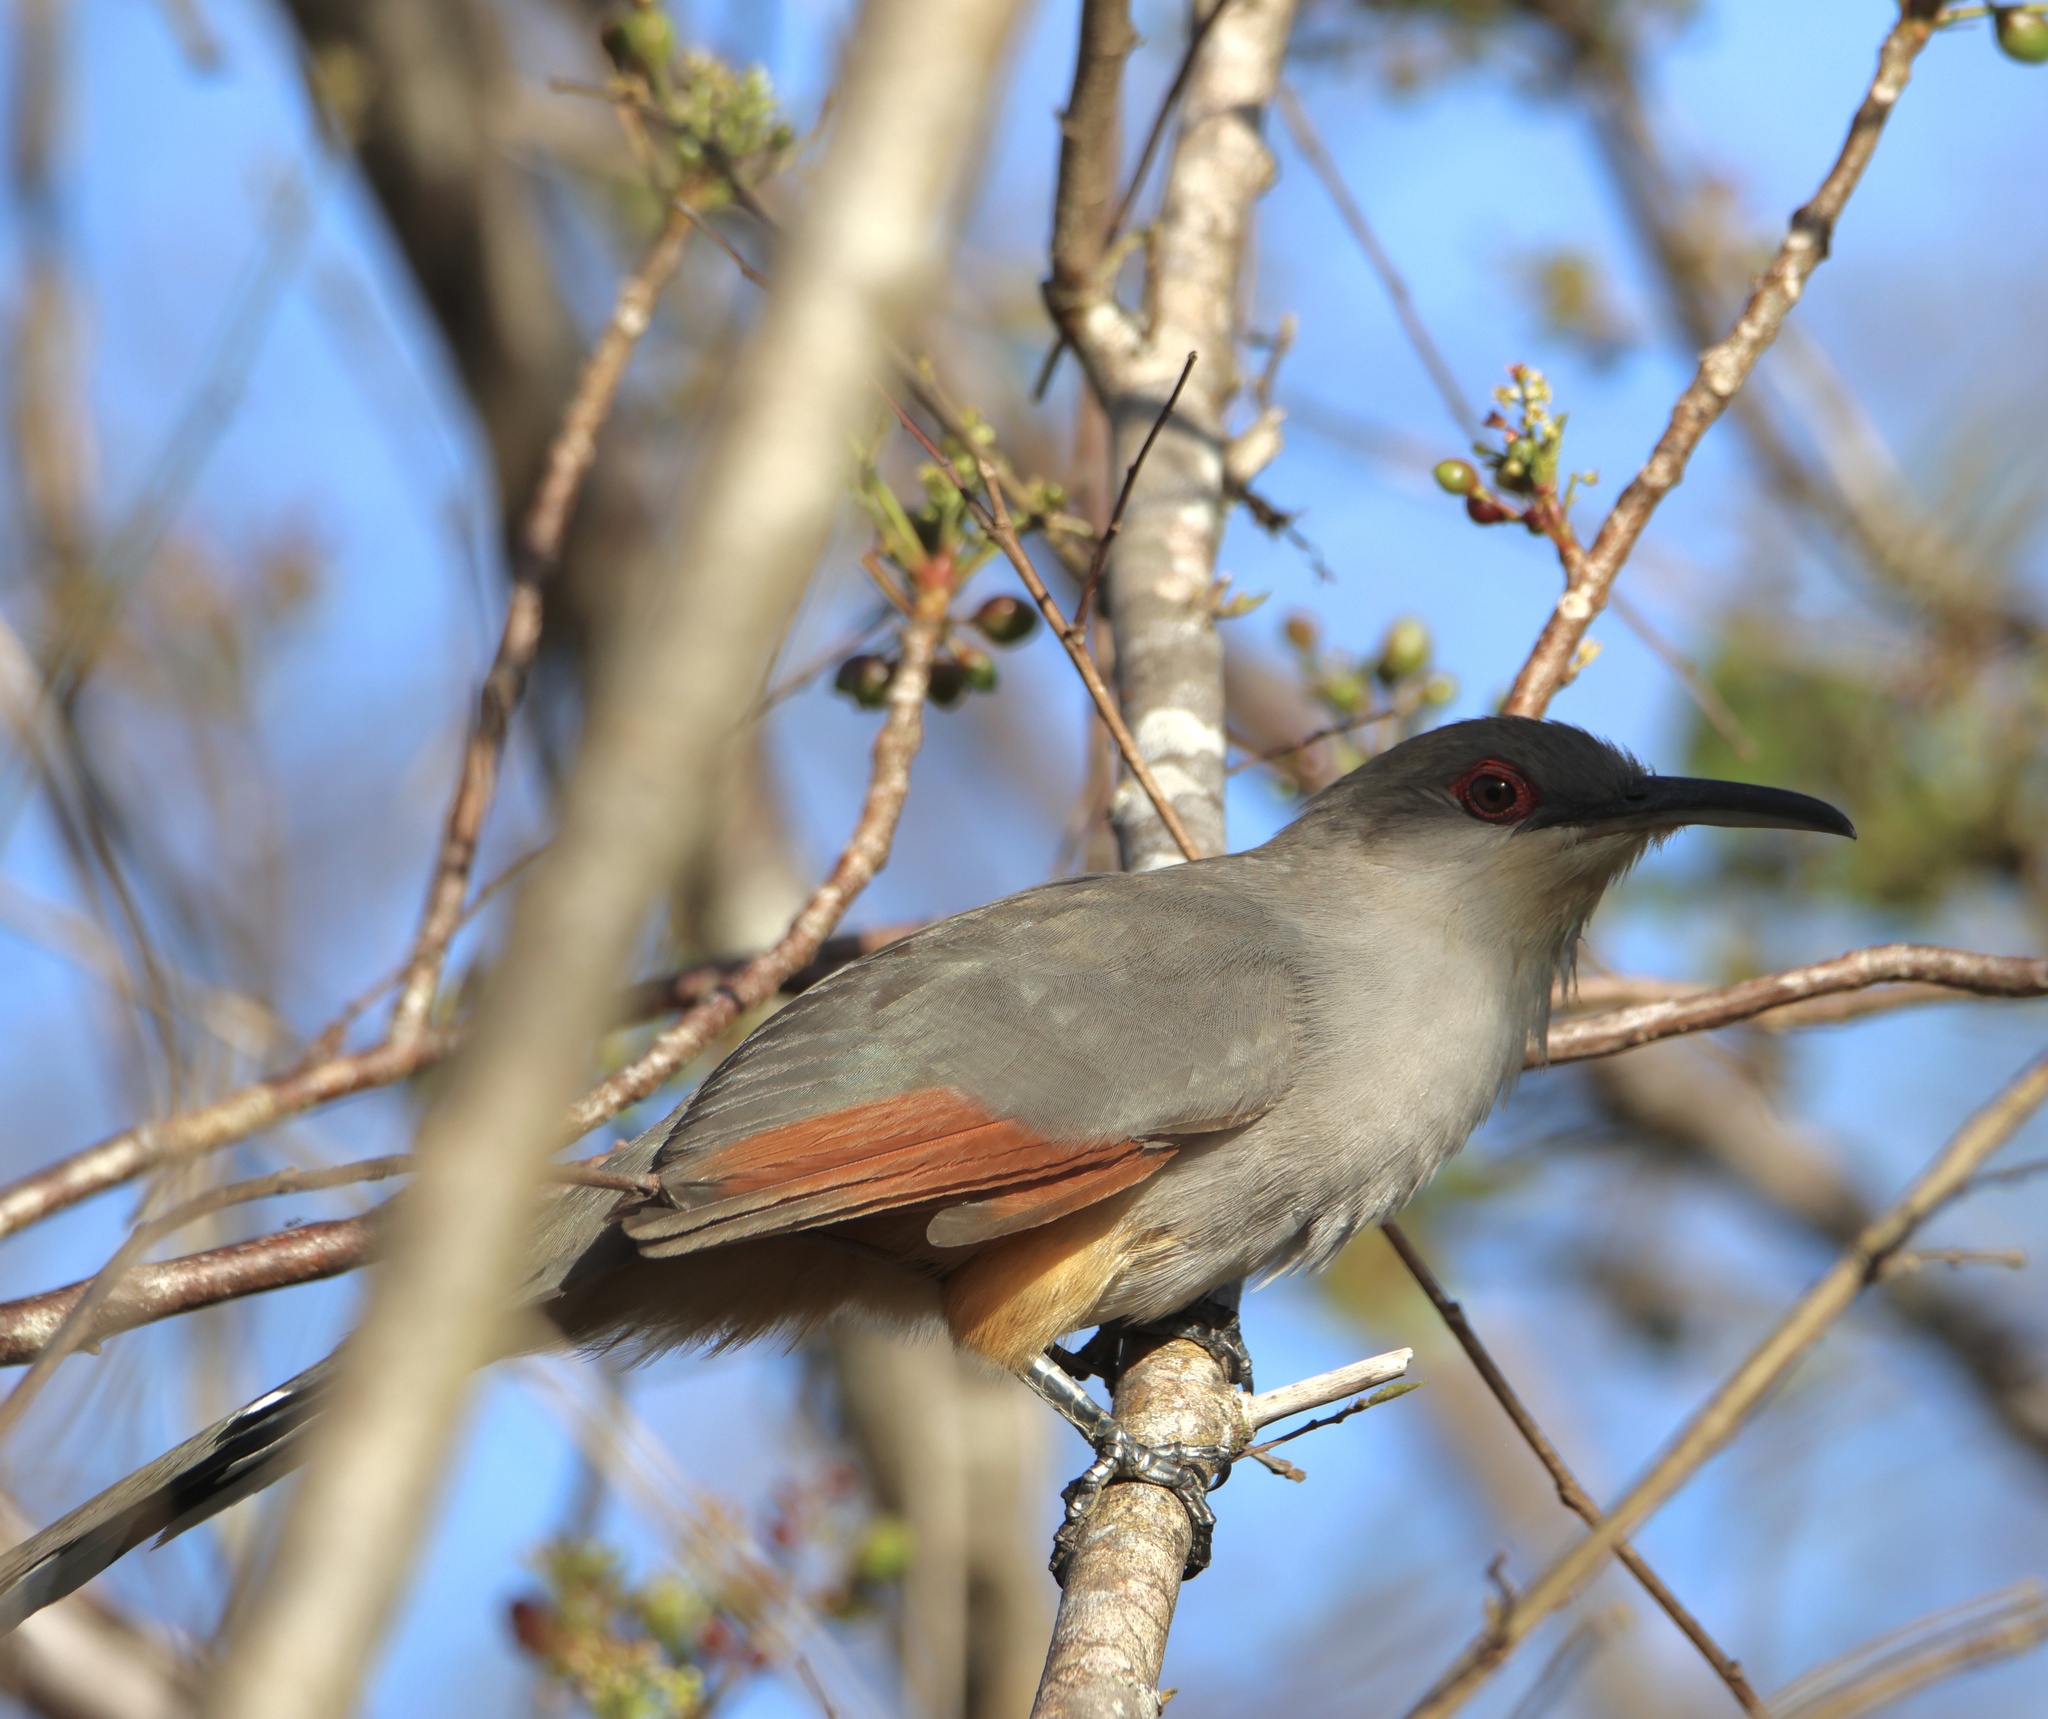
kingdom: Animalia
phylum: Chordata
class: Aves
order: Cuculiformes
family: Cuculidae
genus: Saurothera
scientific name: Saurothera longirostris
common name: Hispaniolan lizard-cuckoo
